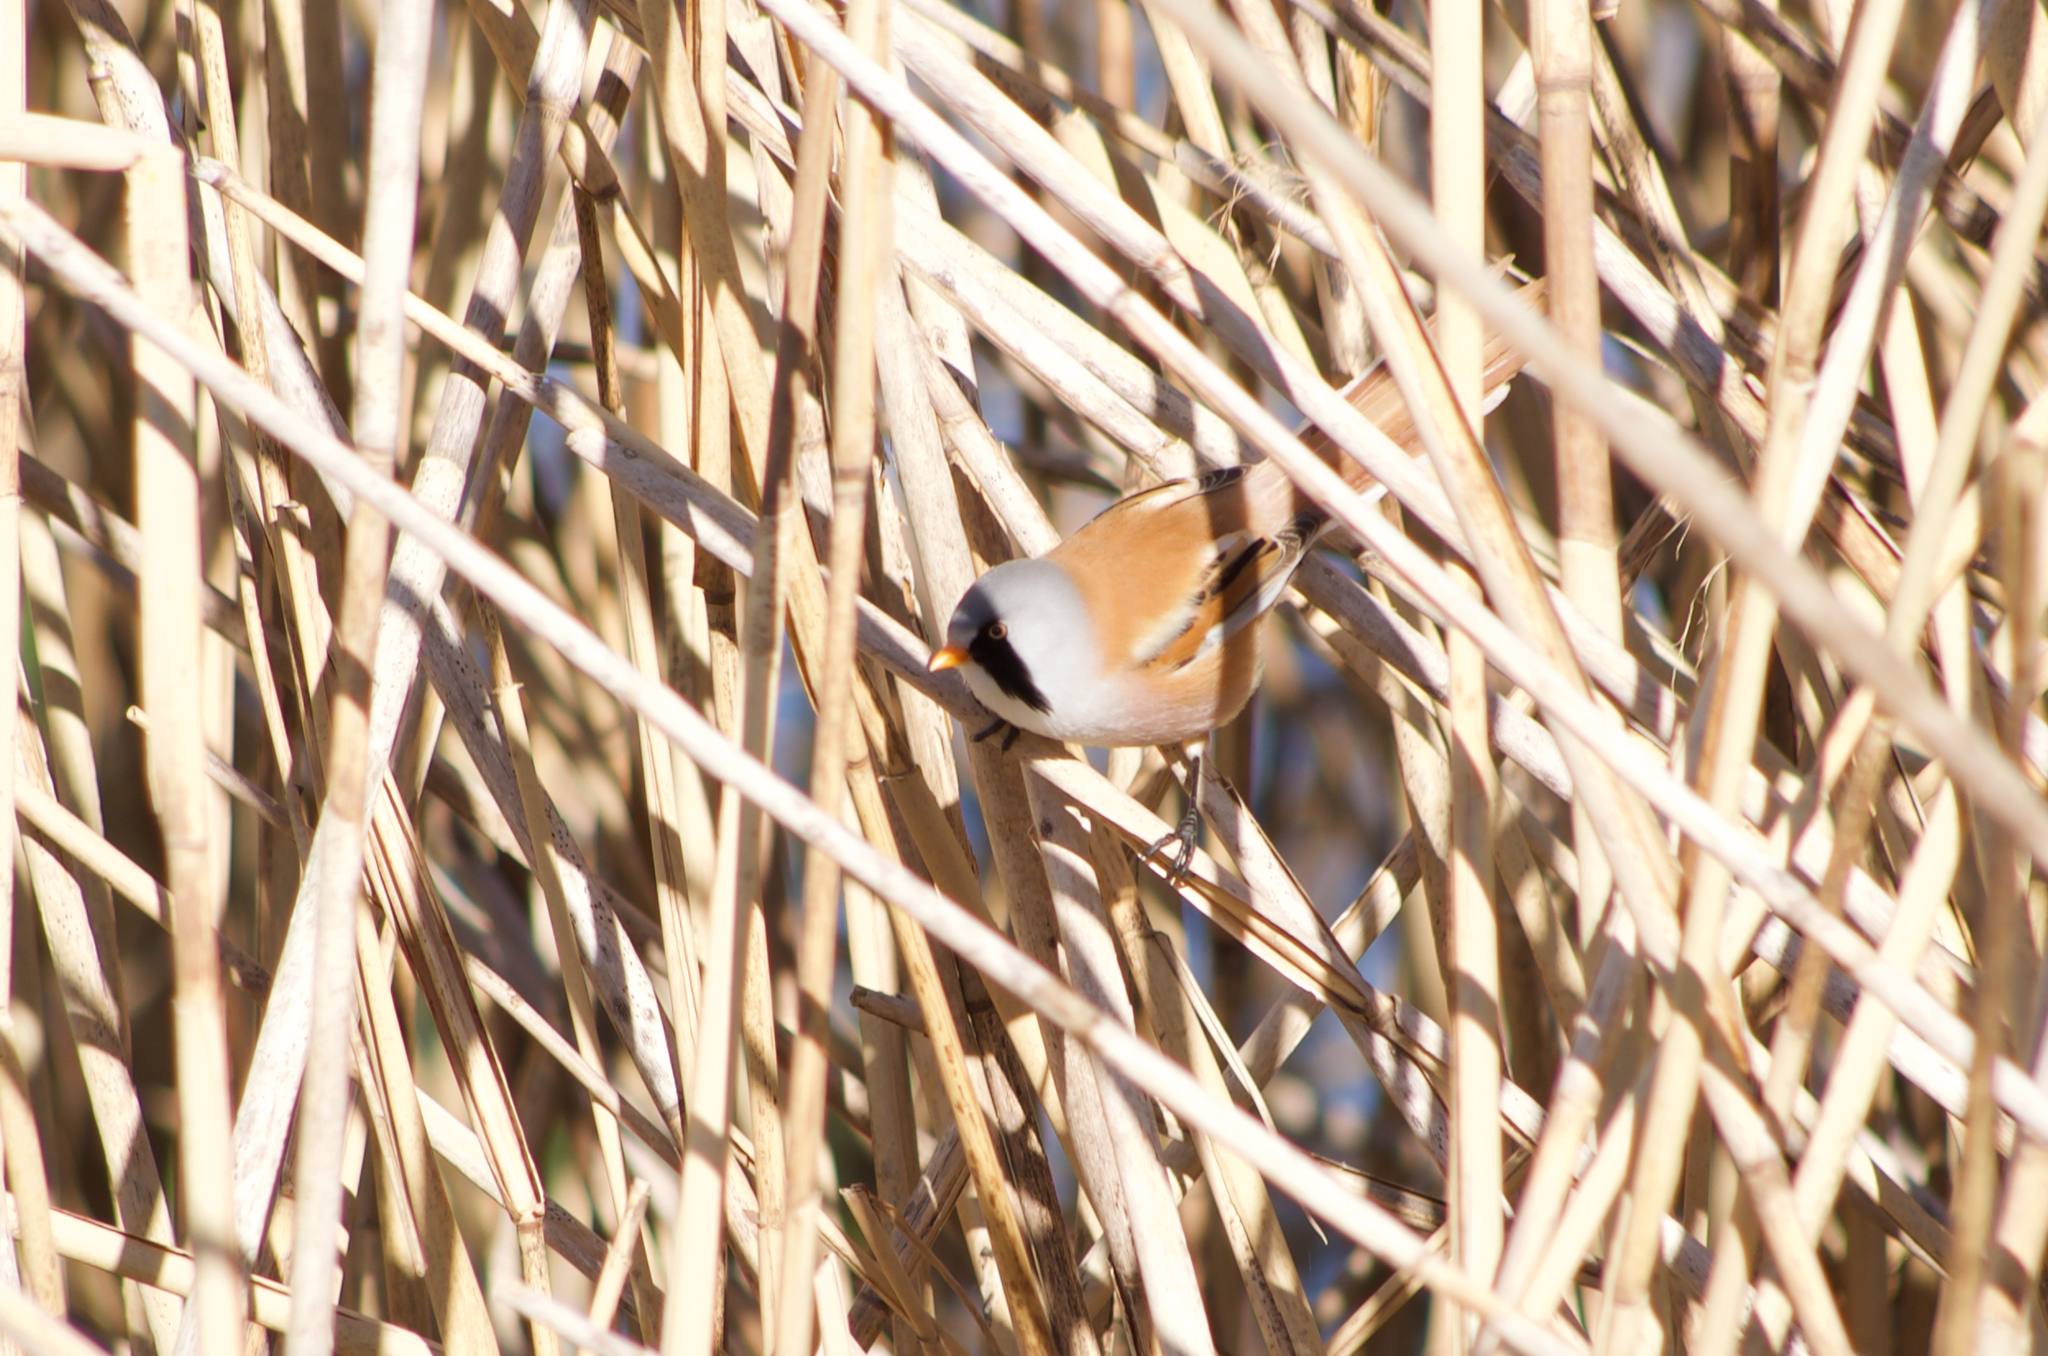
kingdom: Animalia
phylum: Chordata
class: Aves
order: Passeriformes
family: Panuridae
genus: Panurus
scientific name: Panurus biarmicus
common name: Bearded reedling
